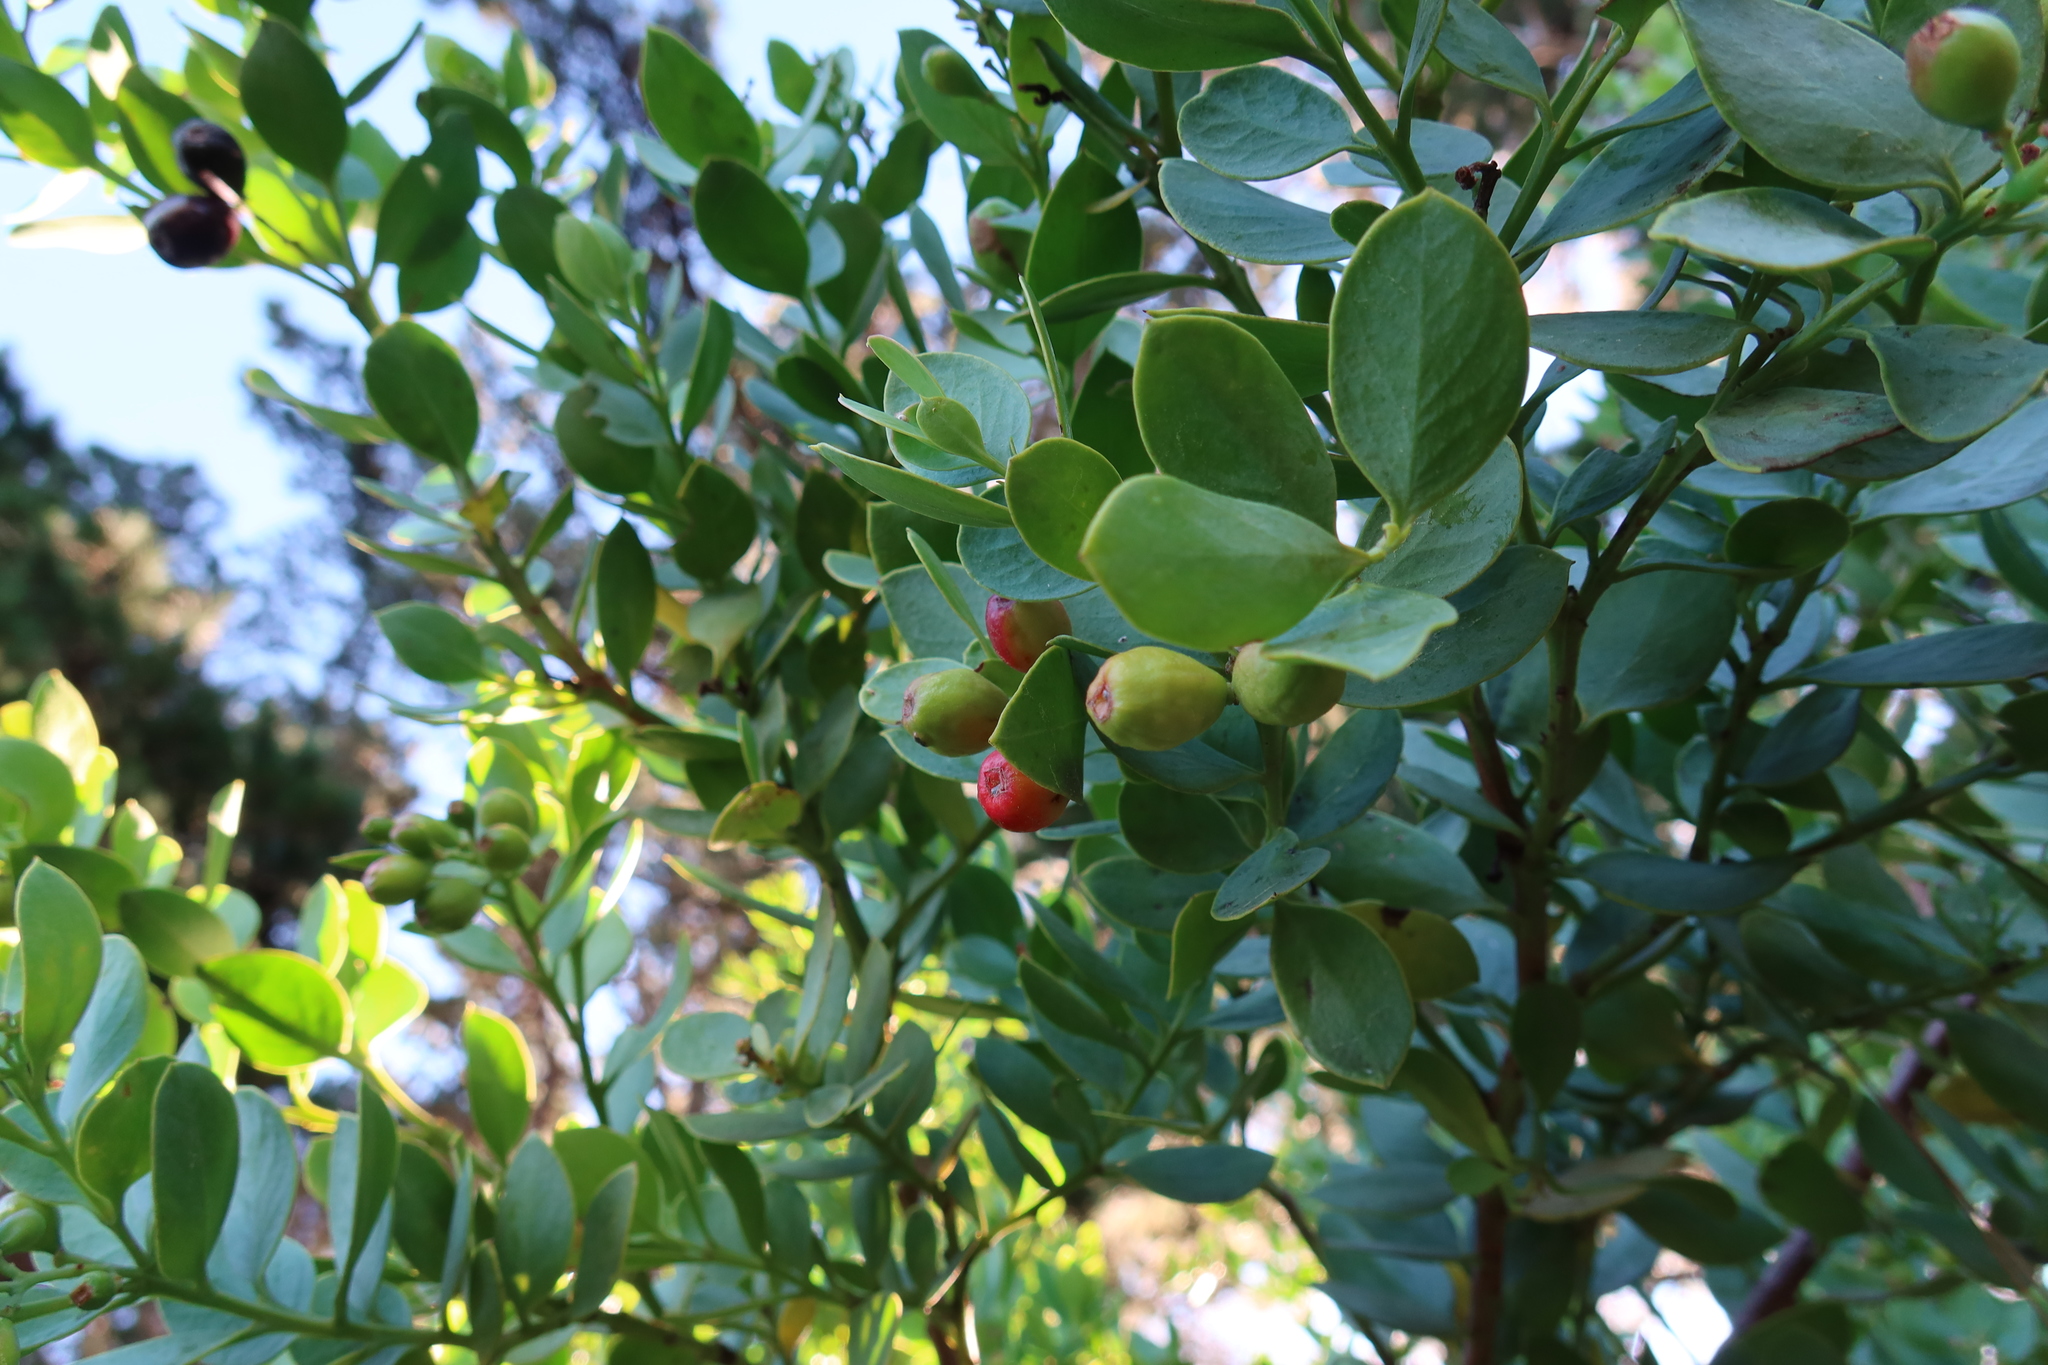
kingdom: Plantae
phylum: Tracheophyta
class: Magnoliopsida
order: Santalales
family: Santalaceae
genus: Osyris
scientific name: Osyris compressa
